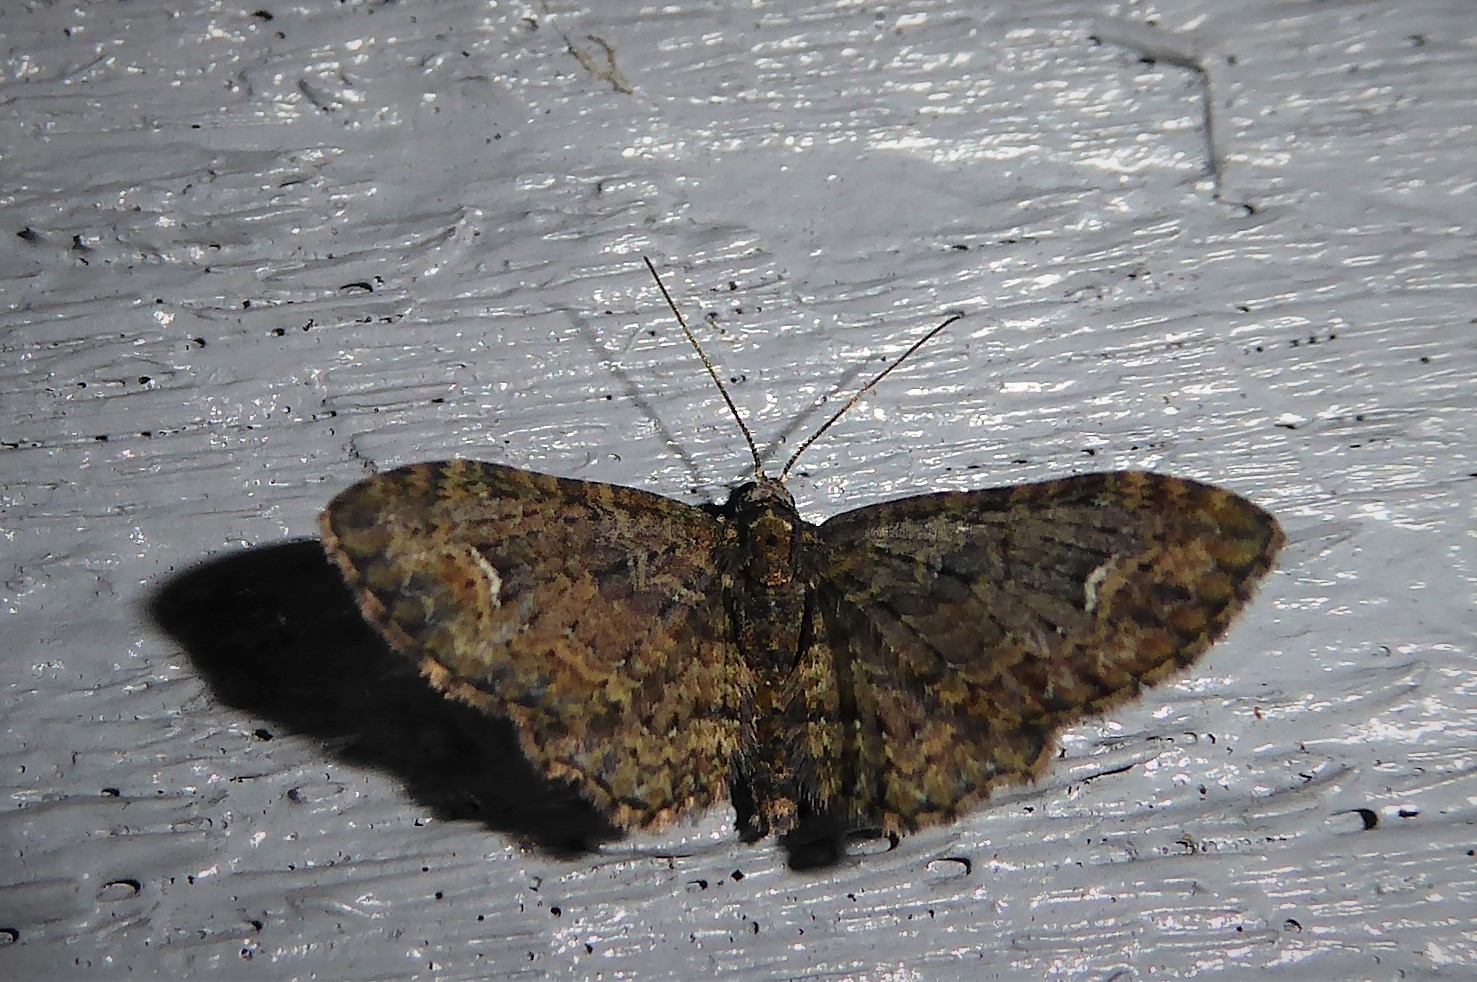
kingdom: Animalia
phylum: Arthropoda
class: Insecta
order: Lepidoptera
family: Geometridae
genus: Pasiphilodes
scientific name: Pasiphilodes testulata
